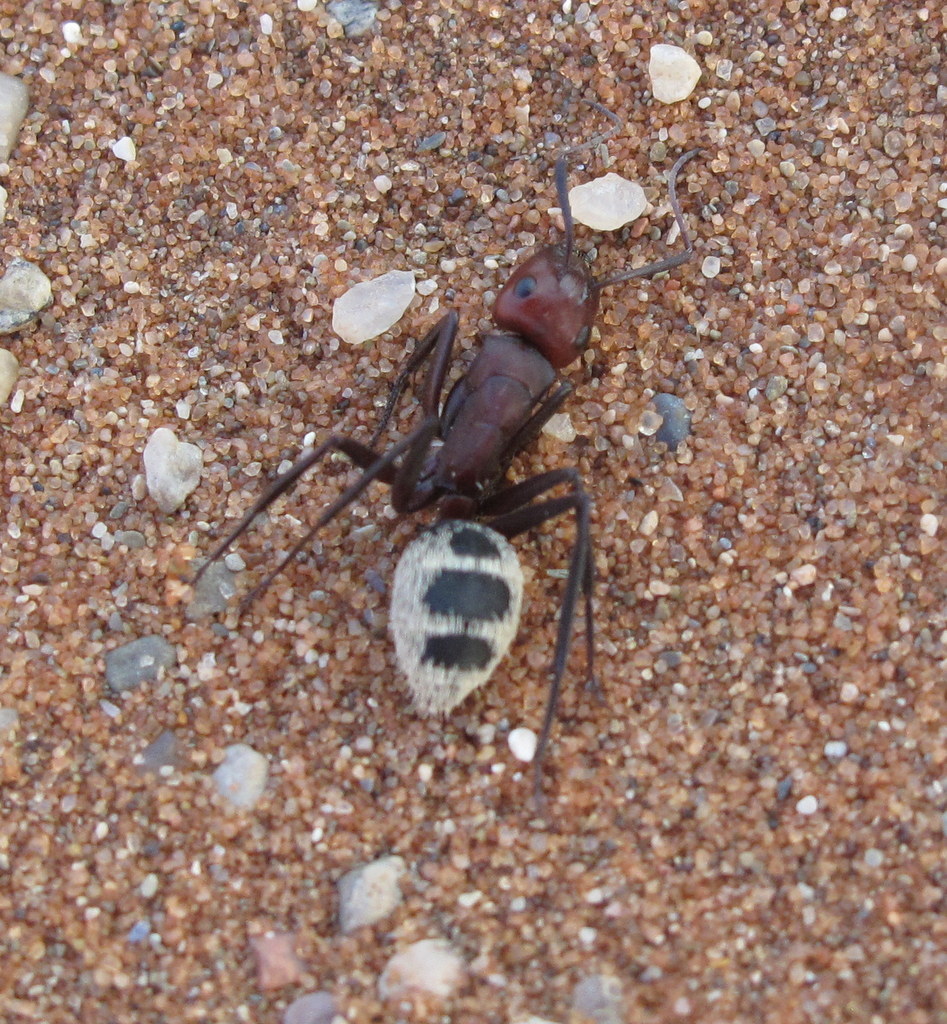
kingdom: Animalia
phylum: Arthropoda
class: Insecta
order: Hymenoptera
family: Formicidae
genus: Camponotus
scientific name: Camponotus detritus
